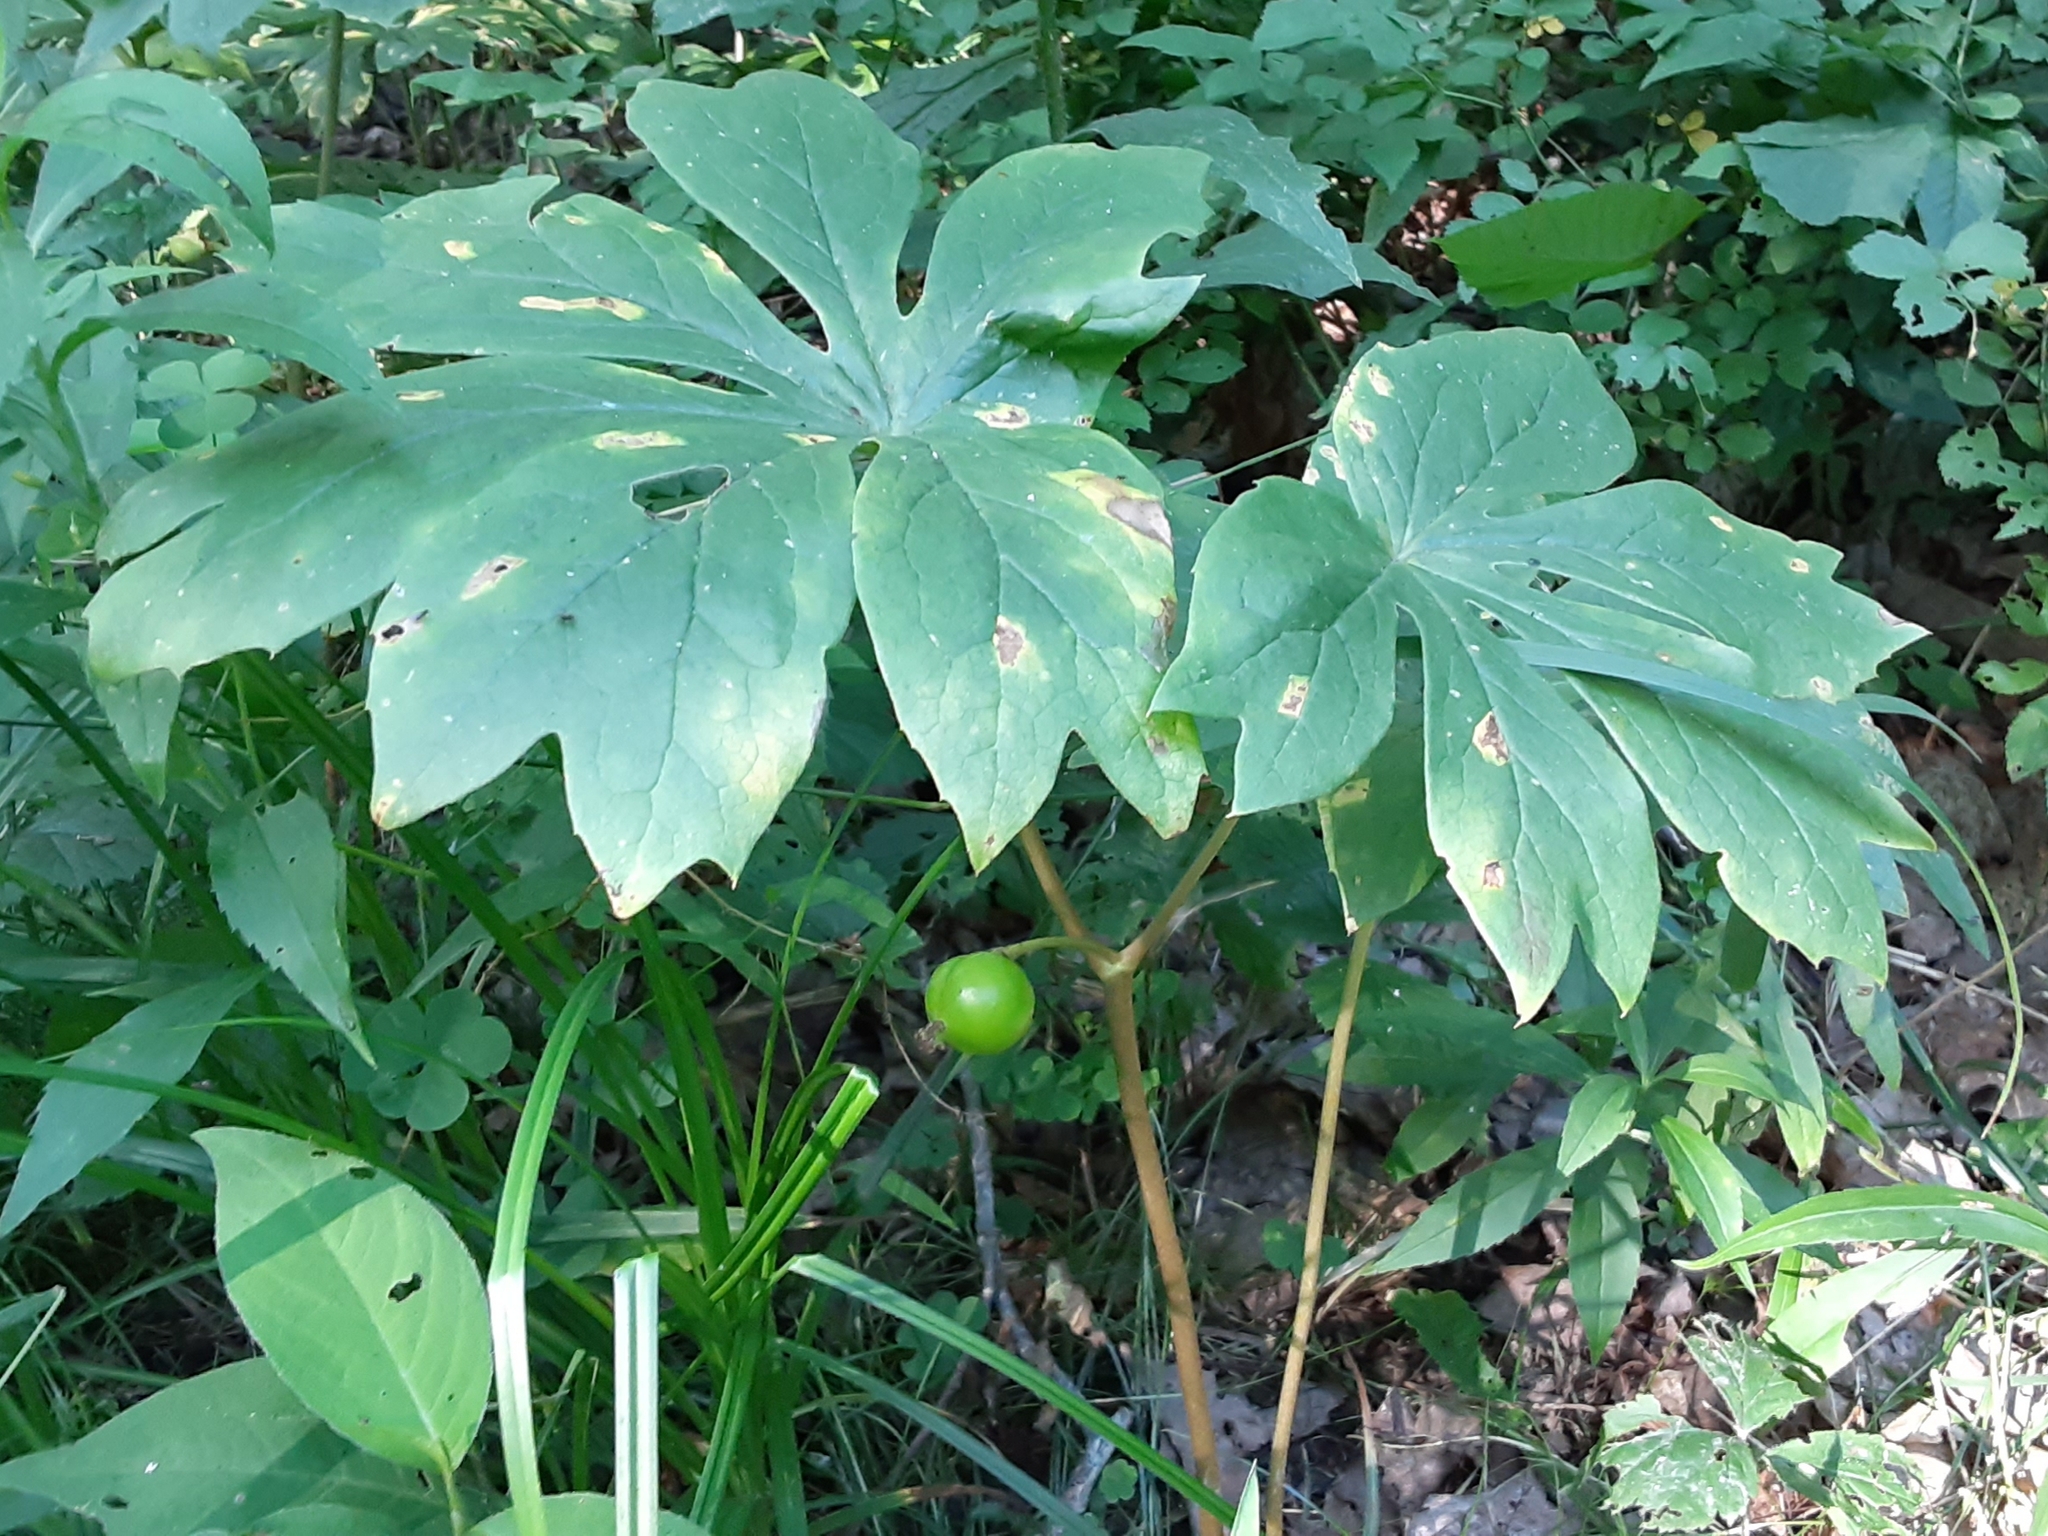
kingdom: Plantae
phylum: Tracheophyta
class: Magnoliopsida
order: Ranunculales
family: Berberidaceae
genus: Podophyllum
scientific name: Podophyllum peltatum
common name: Wild mandrake
